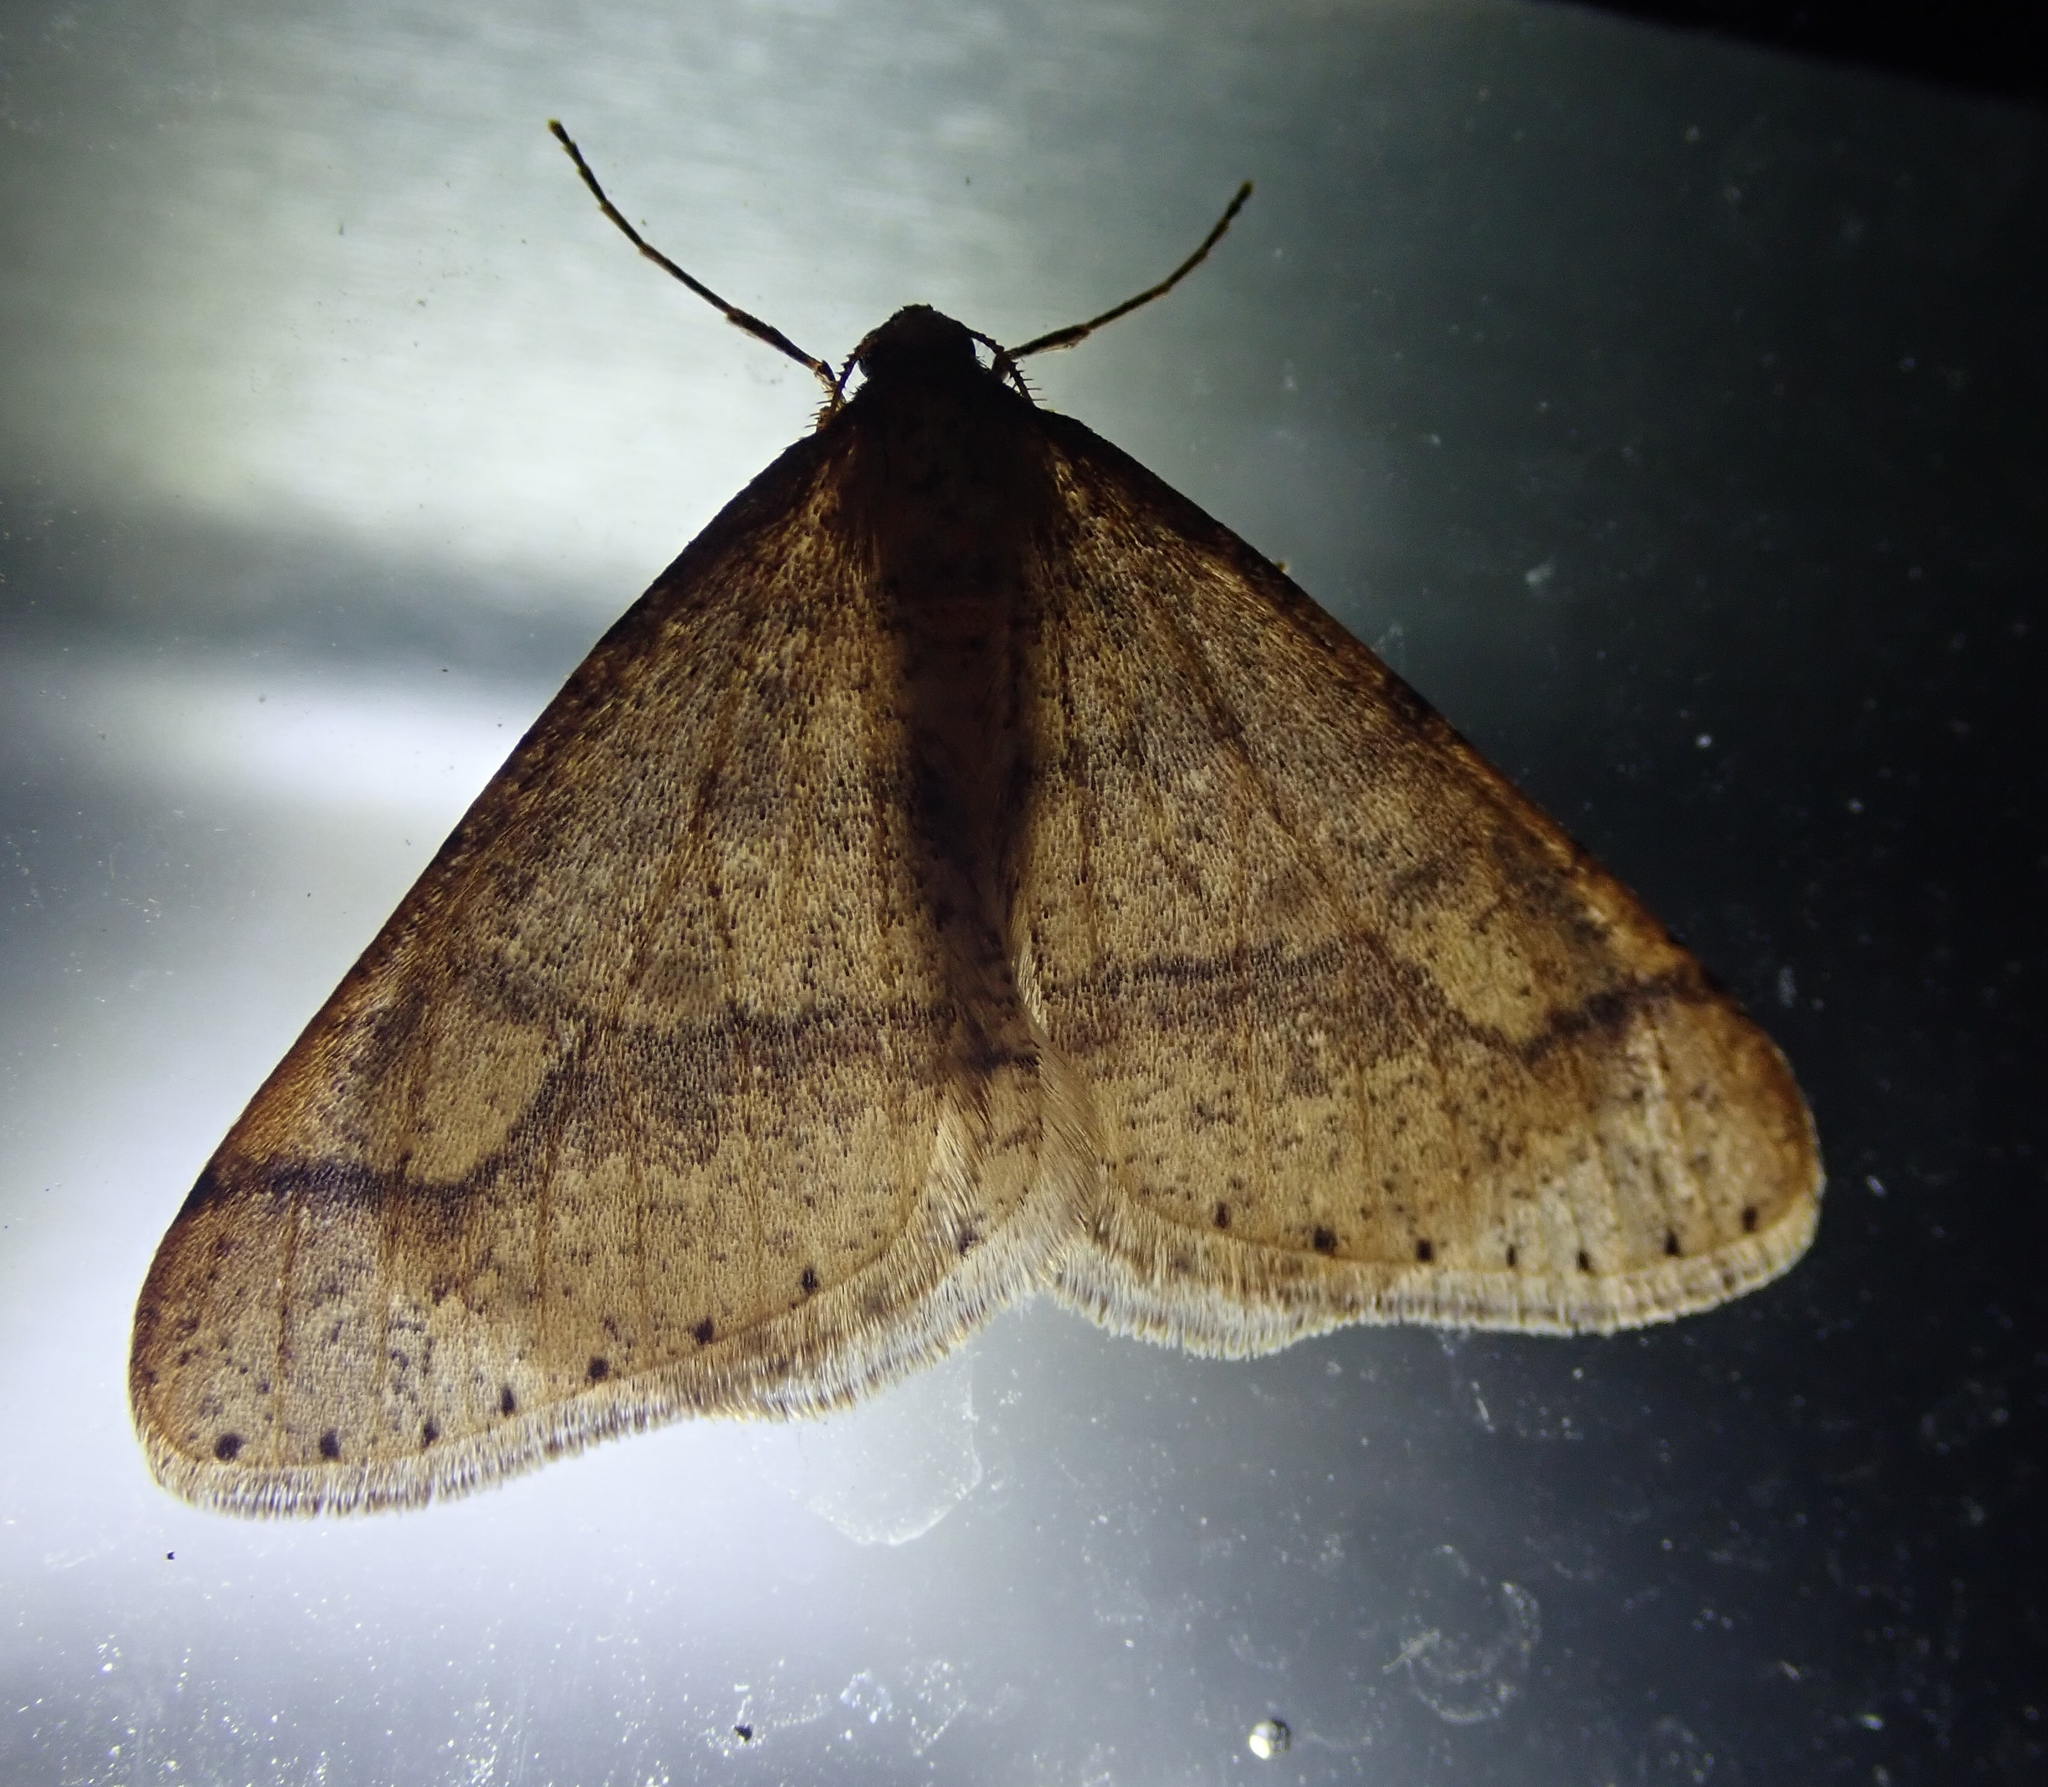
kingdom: Animalia
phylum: Arthropoda
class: Insecta
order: Lepidoptera
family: Geometridae
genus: Agriopis
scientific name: Agriopis marginaria
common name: Dotted border
